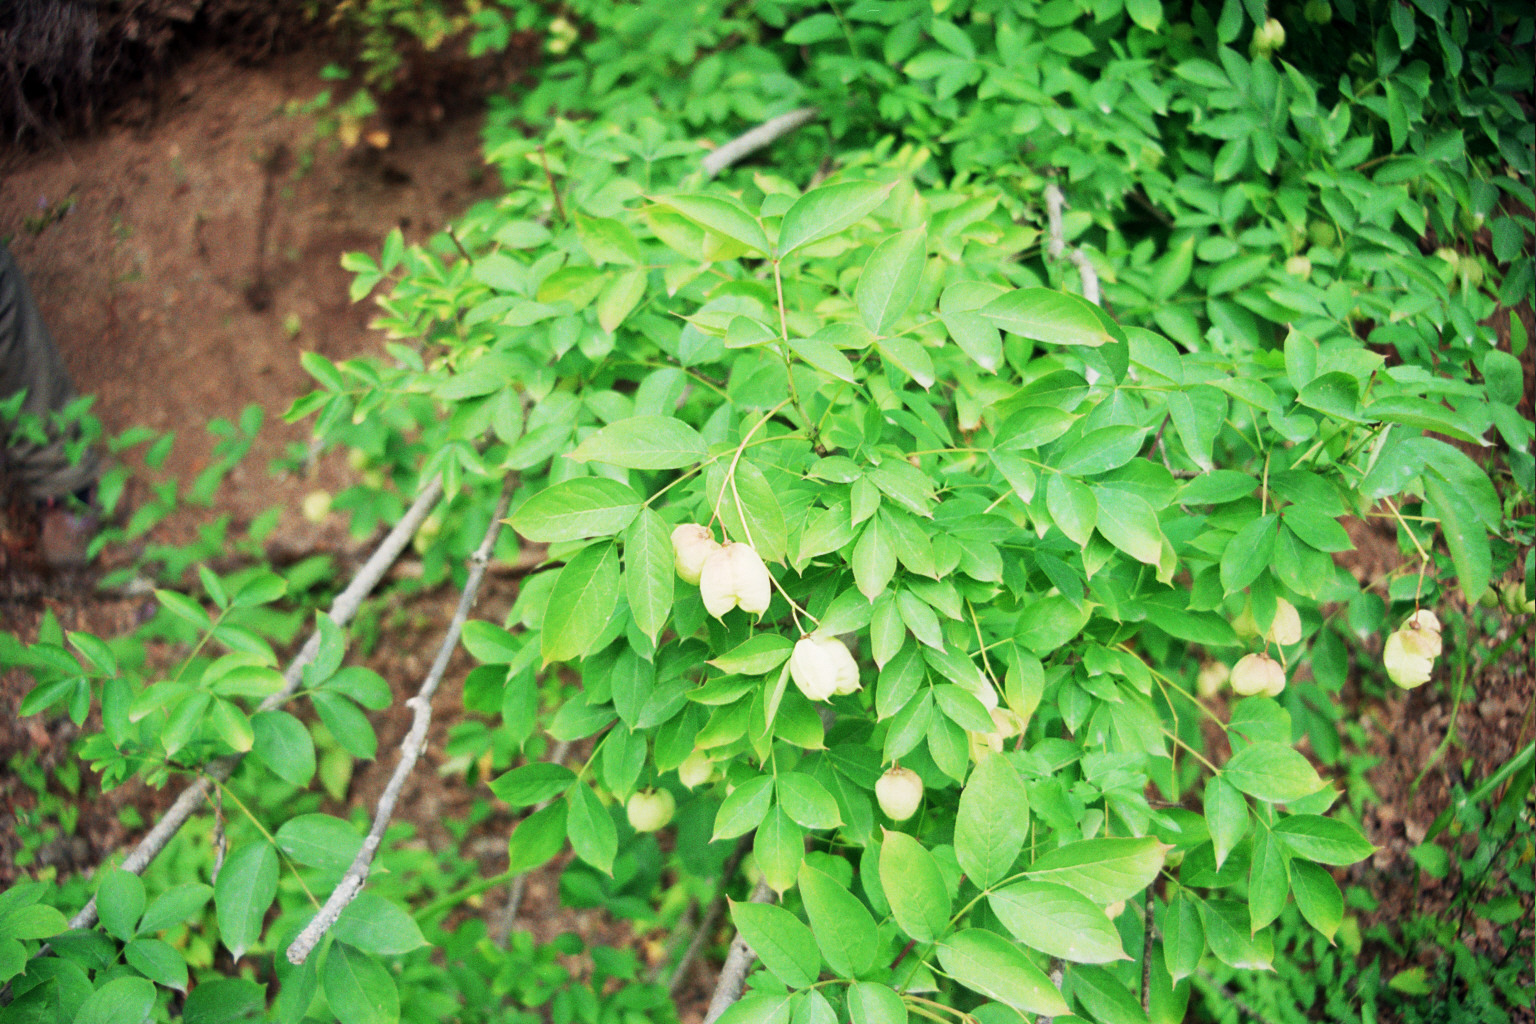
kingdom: Plantae
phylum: Tracheophyta
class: Magnoliopsida
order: Crossosomatales
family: Staphyleaceae
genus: Staphylea
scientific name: Staphylea pinnata
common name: Bladdernut
